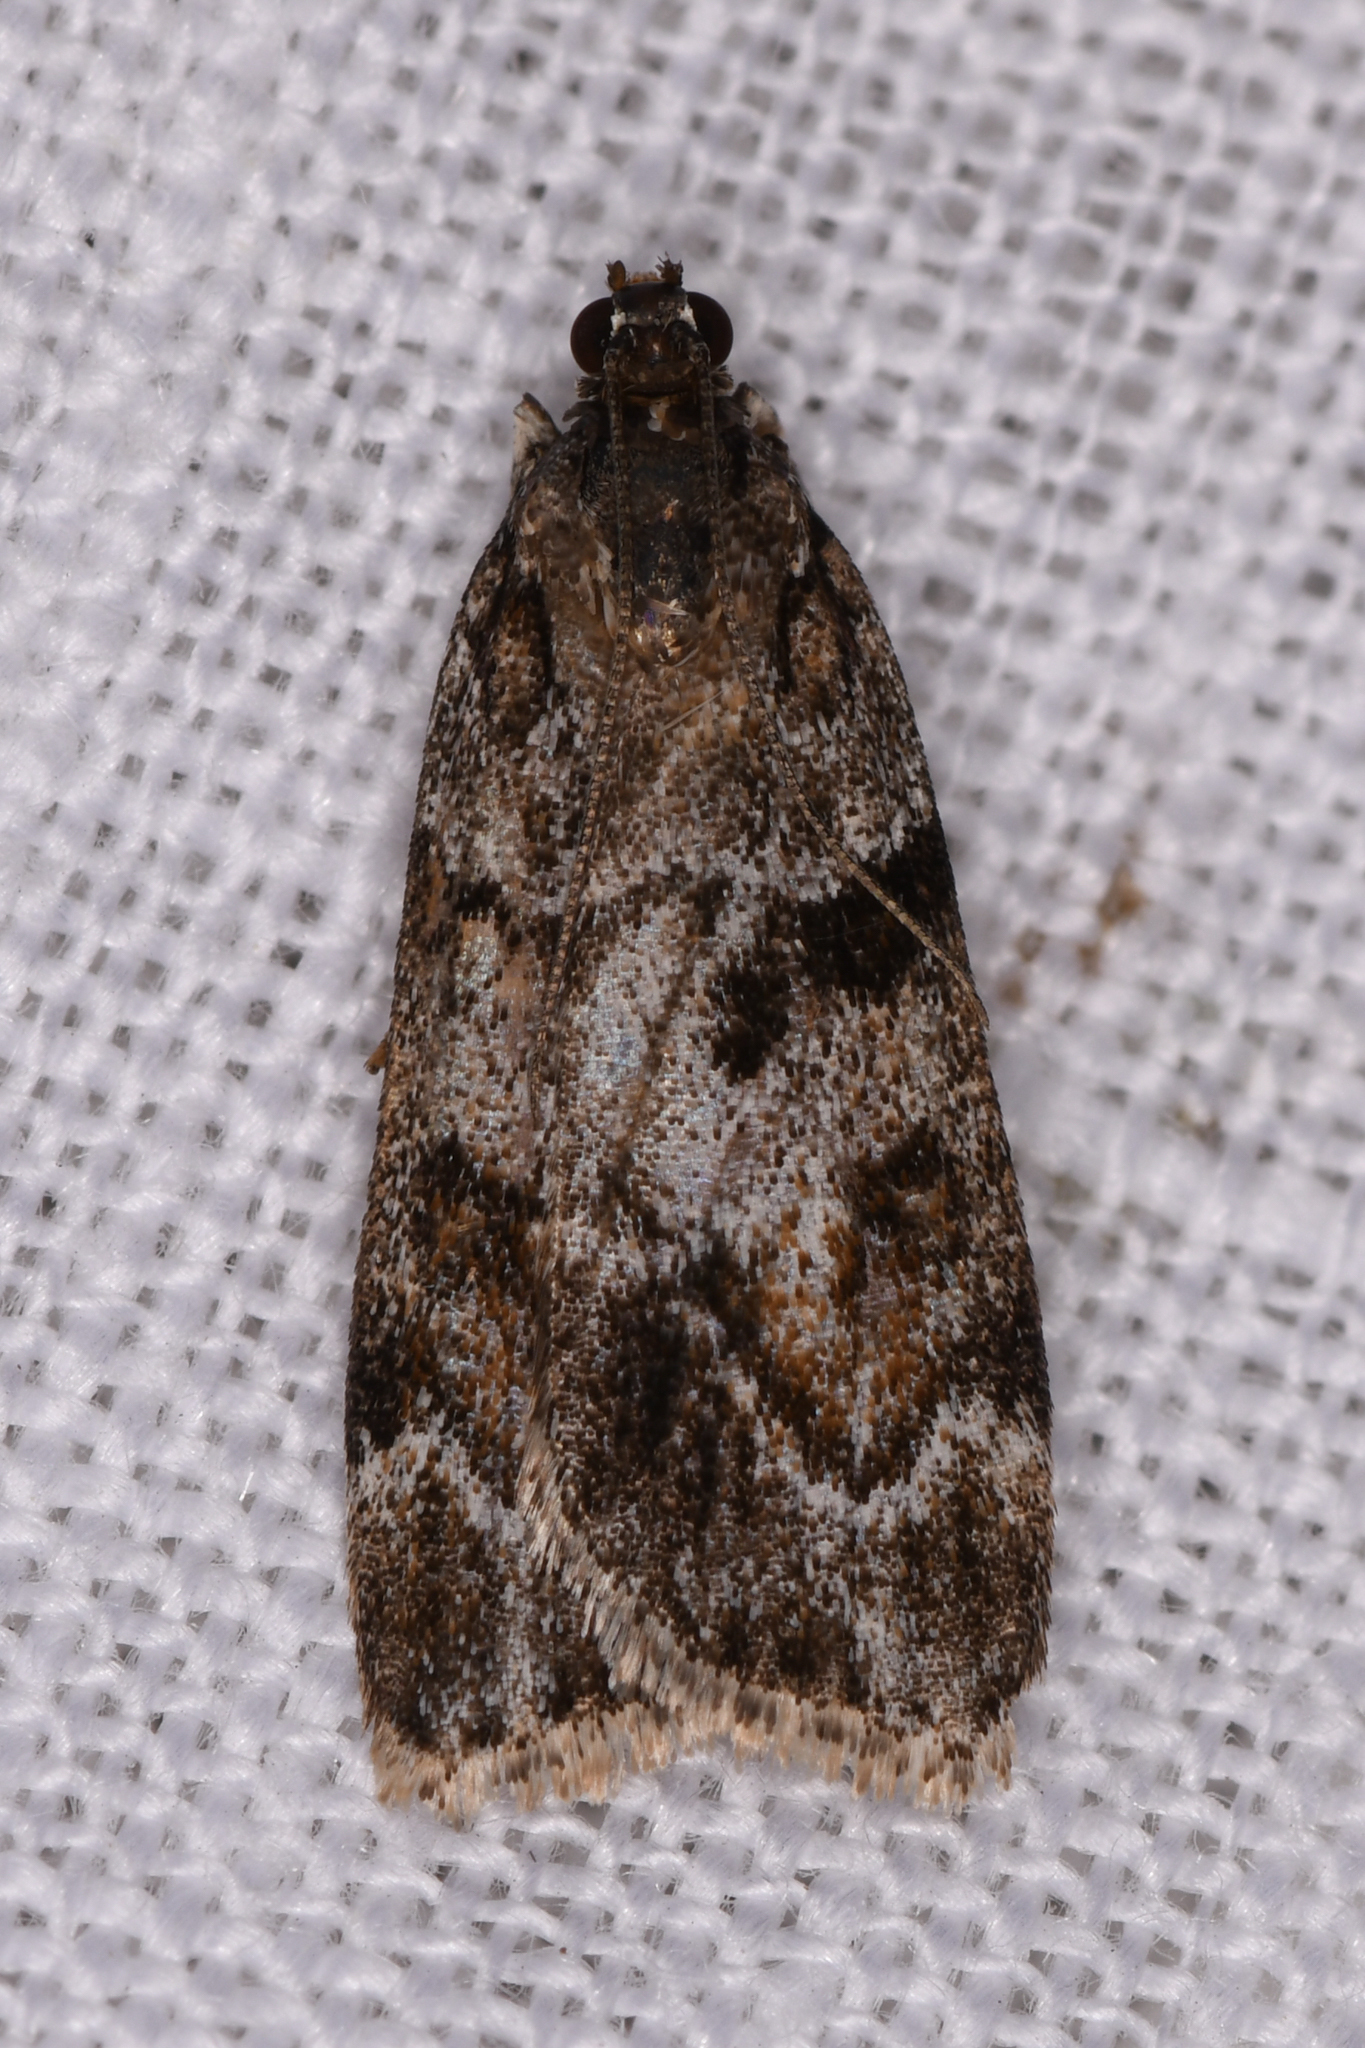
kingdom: Animalia
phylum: Arthropoda
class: Insecta
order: Lepidoptera
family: Crambidae
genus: Gesneria
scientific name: Gesneria centuriella
